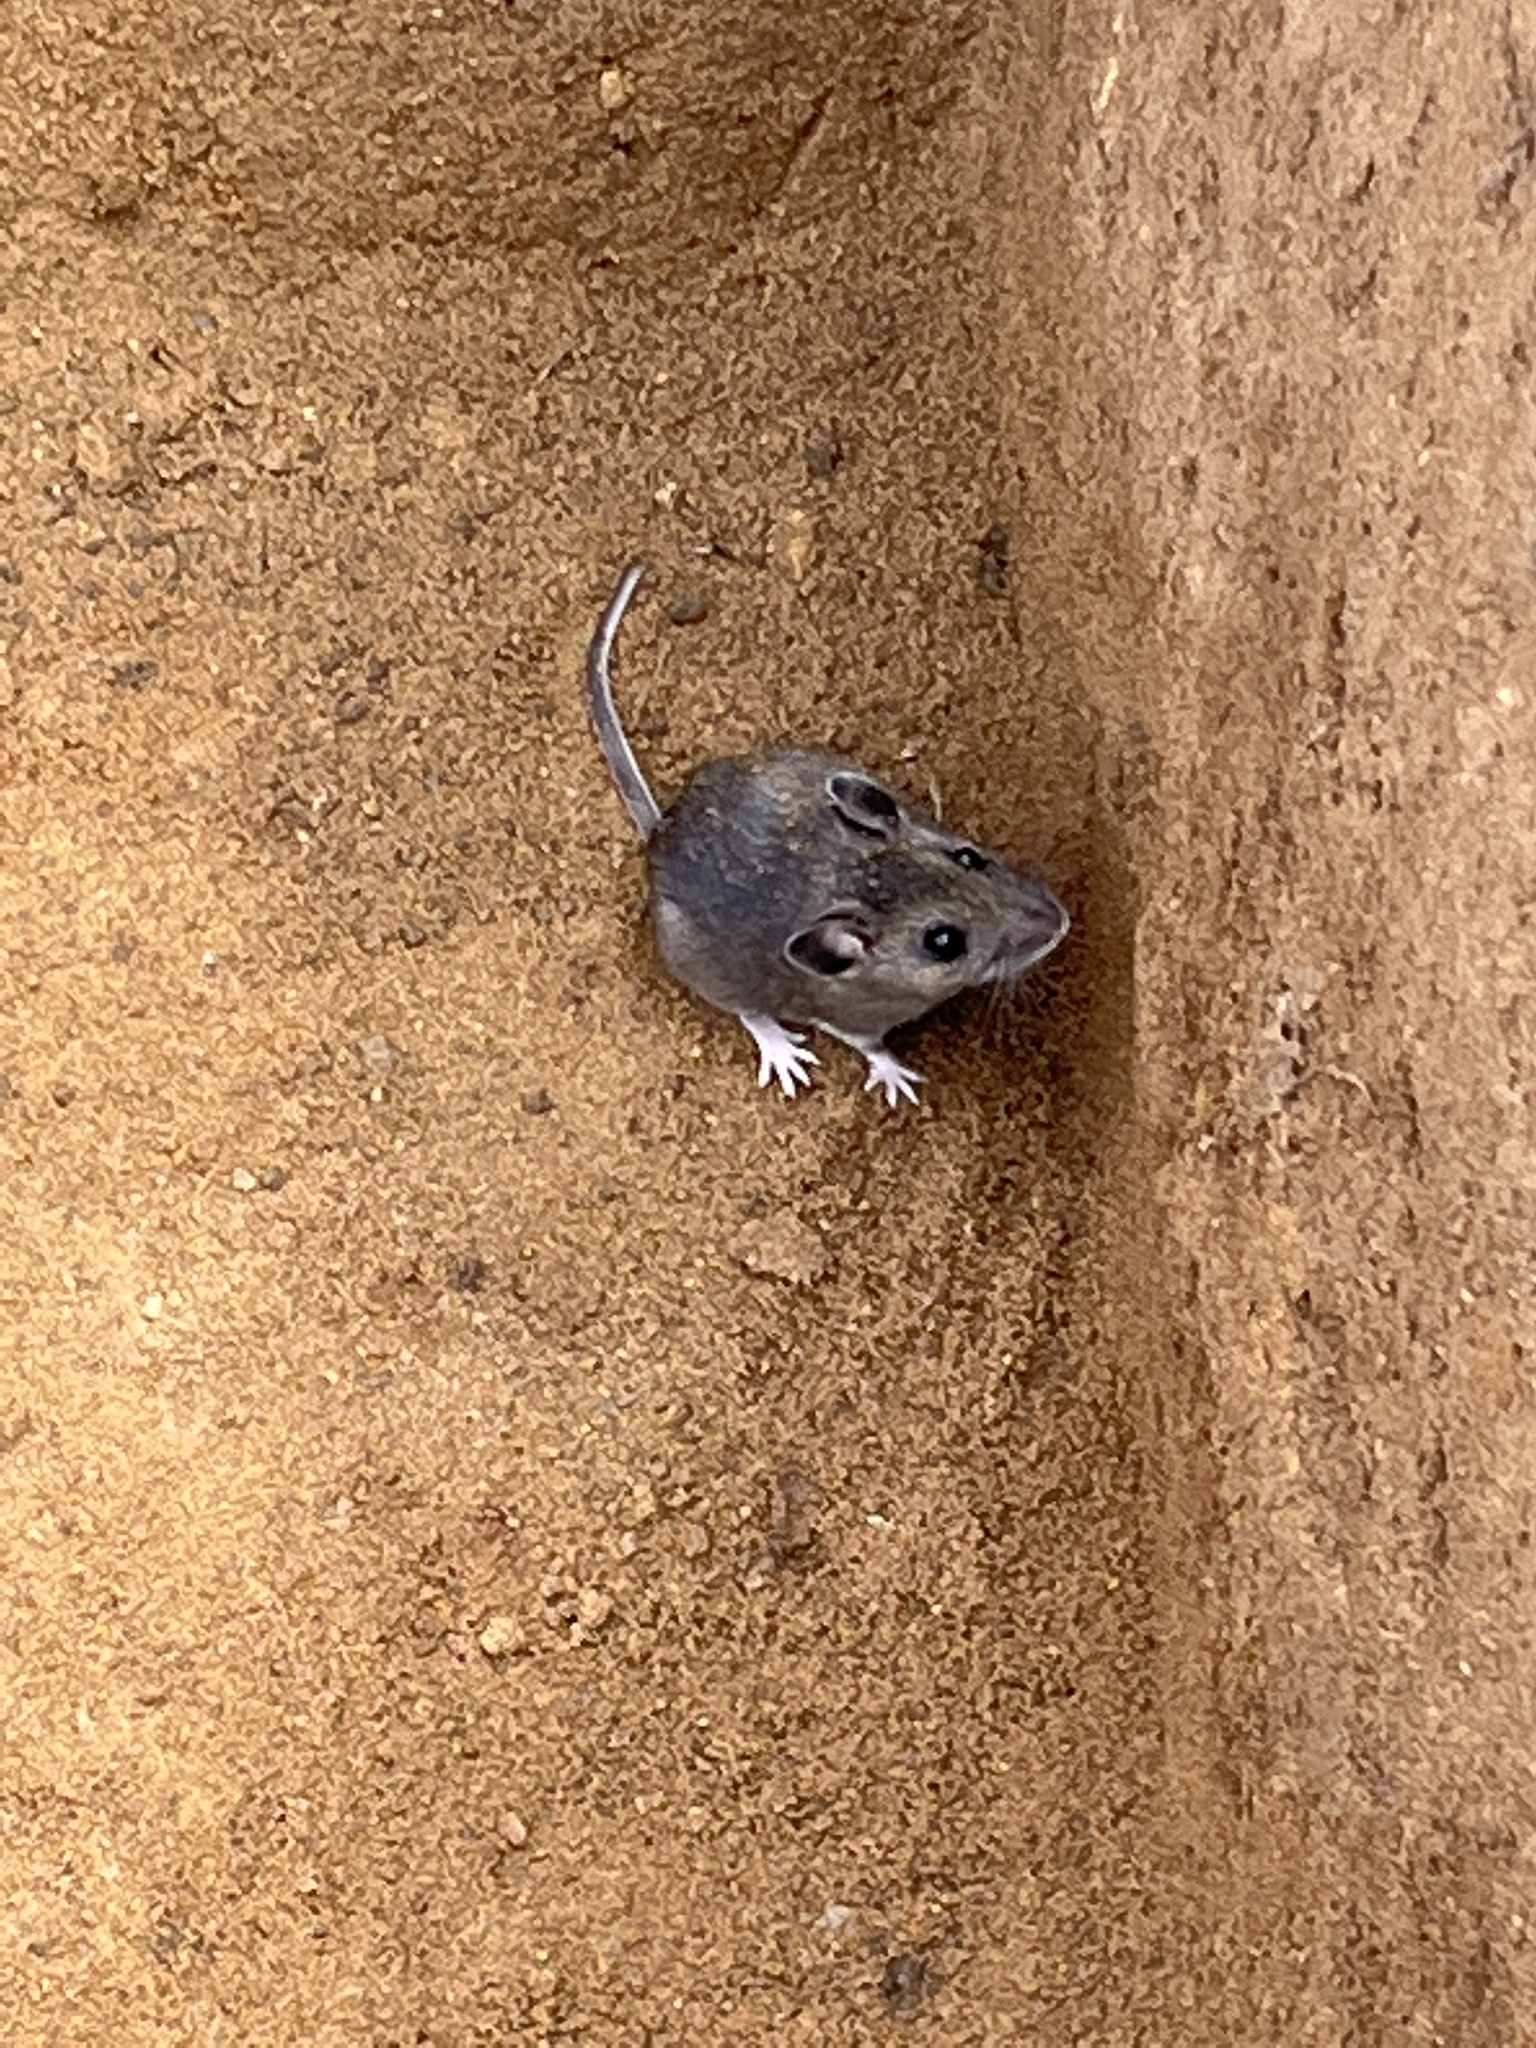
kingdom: Animalia
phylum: Chordata
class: Mammalia
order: Rodentia
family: Cricetidae
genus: Peromyscus
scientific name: Peromyscus
